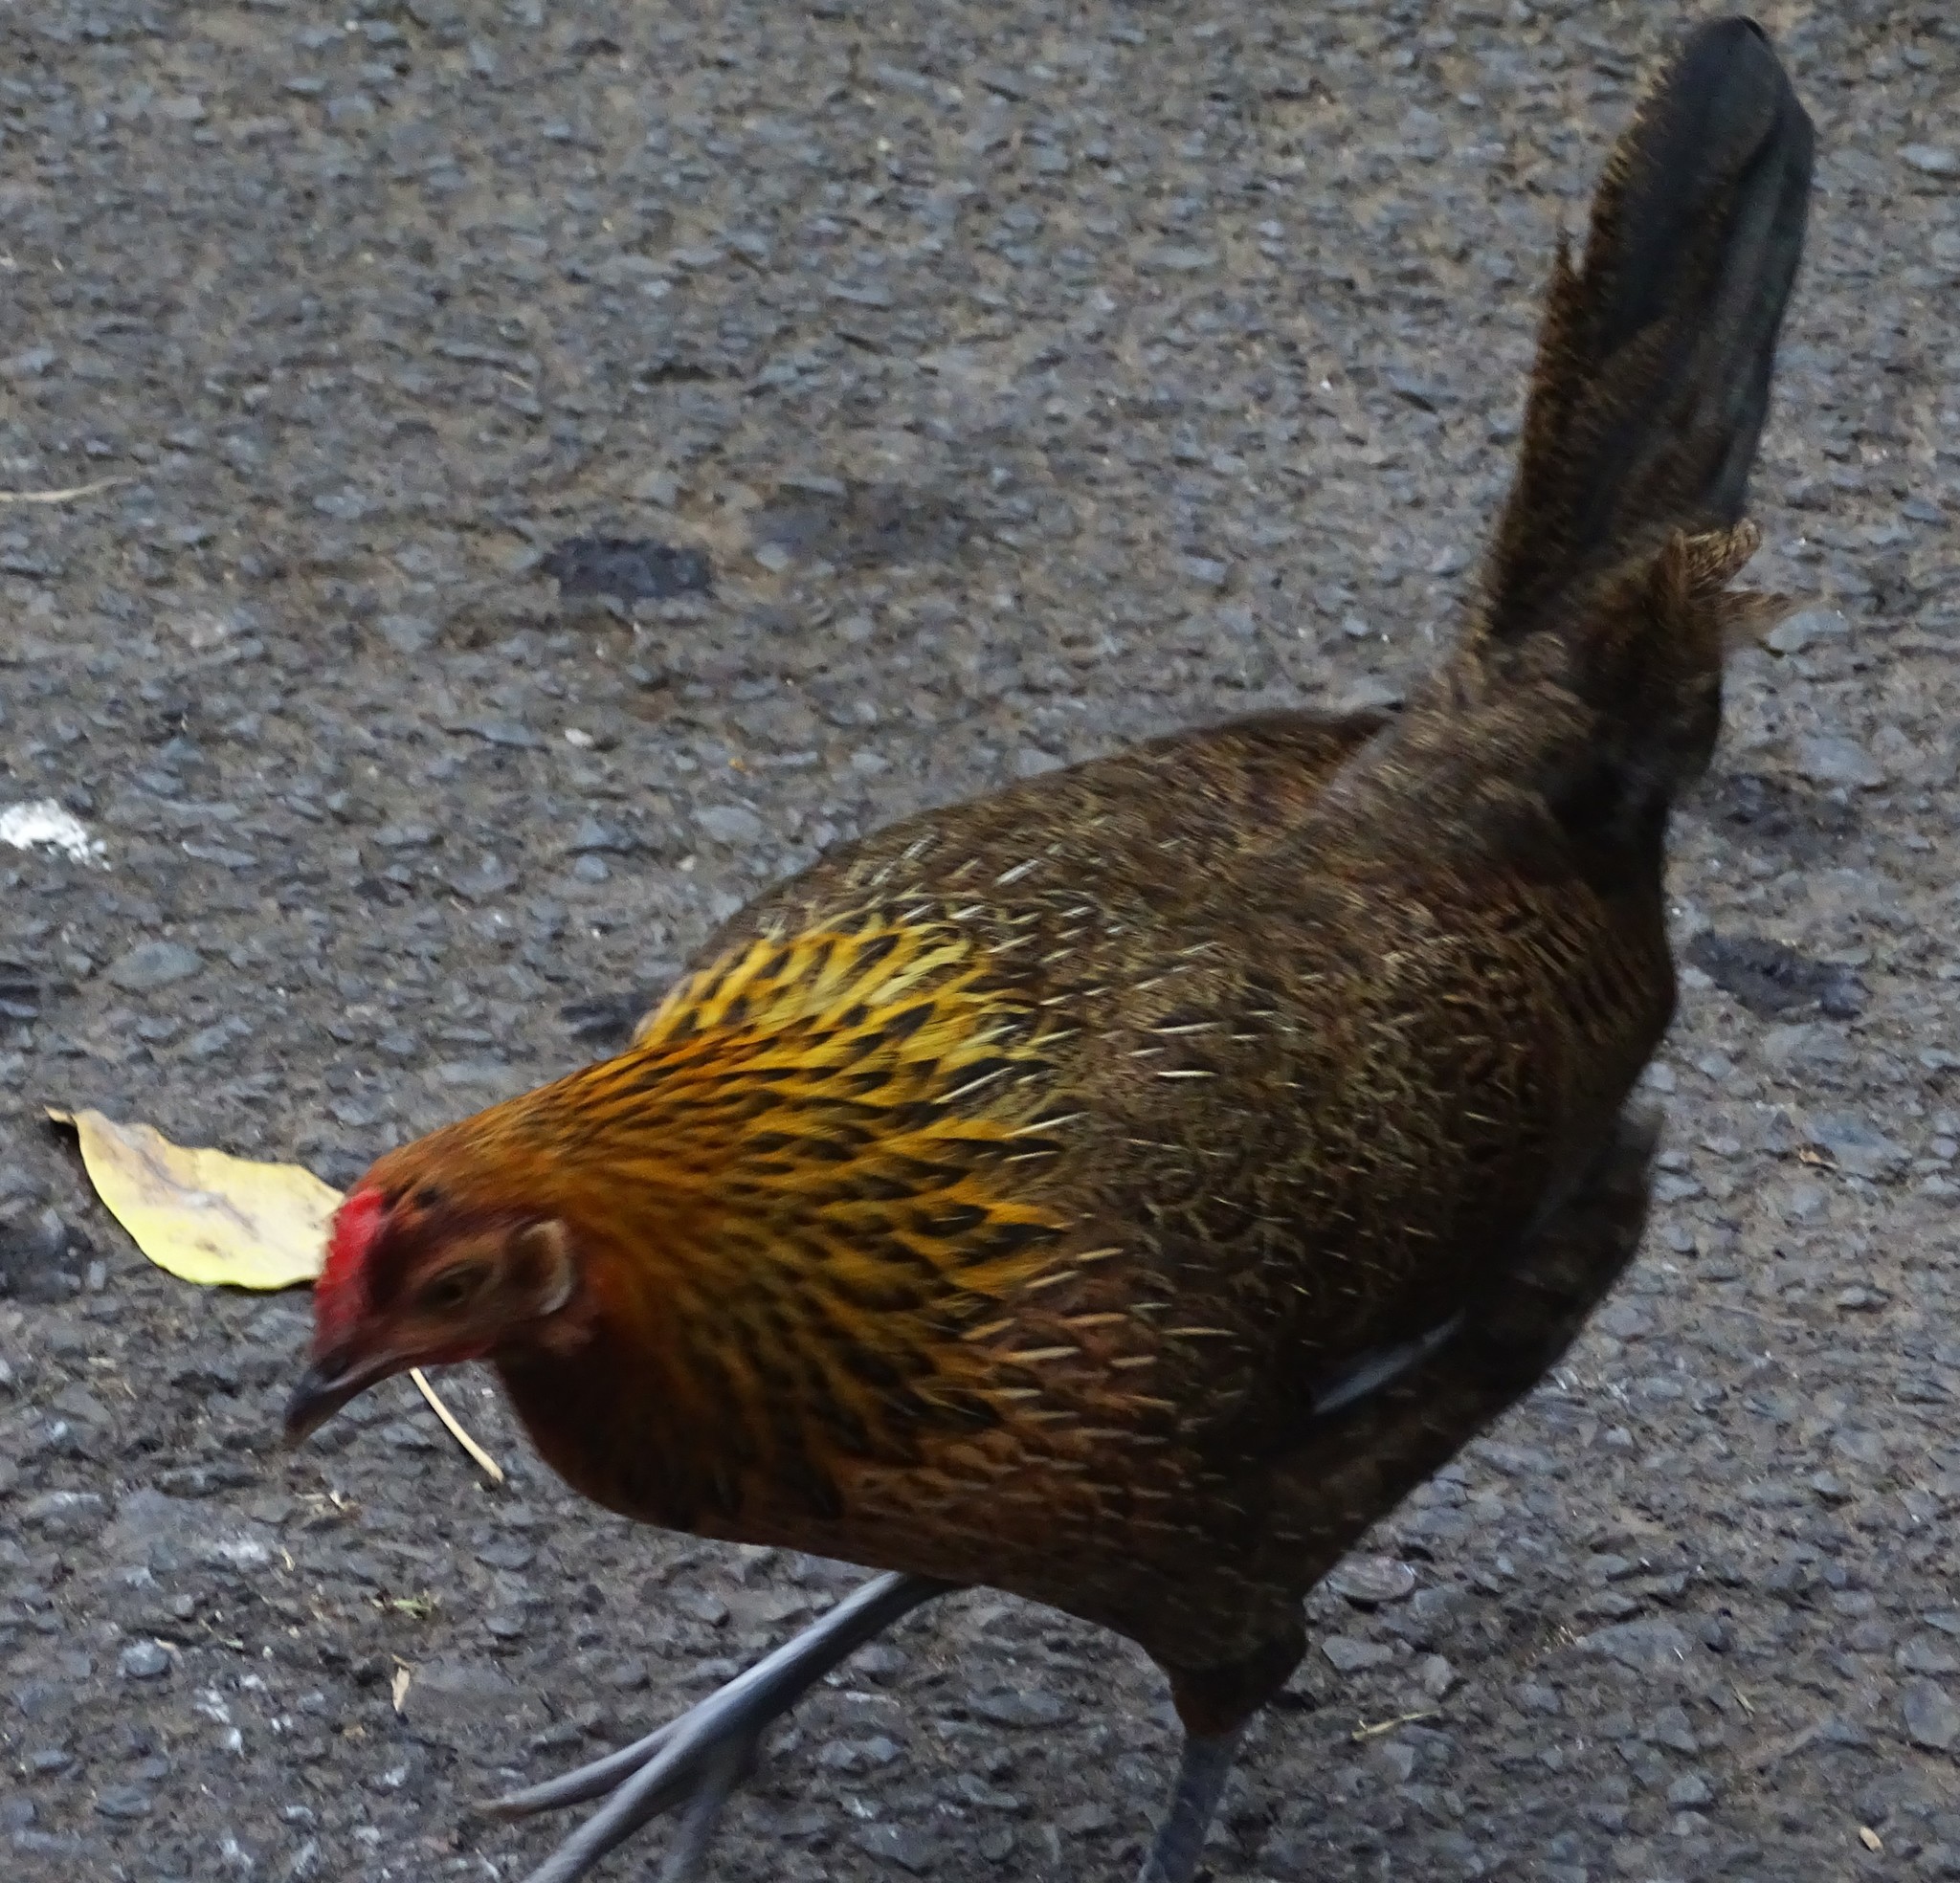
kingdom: Animalia
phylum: Chordata
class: Aves
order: Galliformes
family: Phasianidae
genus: Gallus
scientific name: Gallus gallus
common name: Red junglefowl
